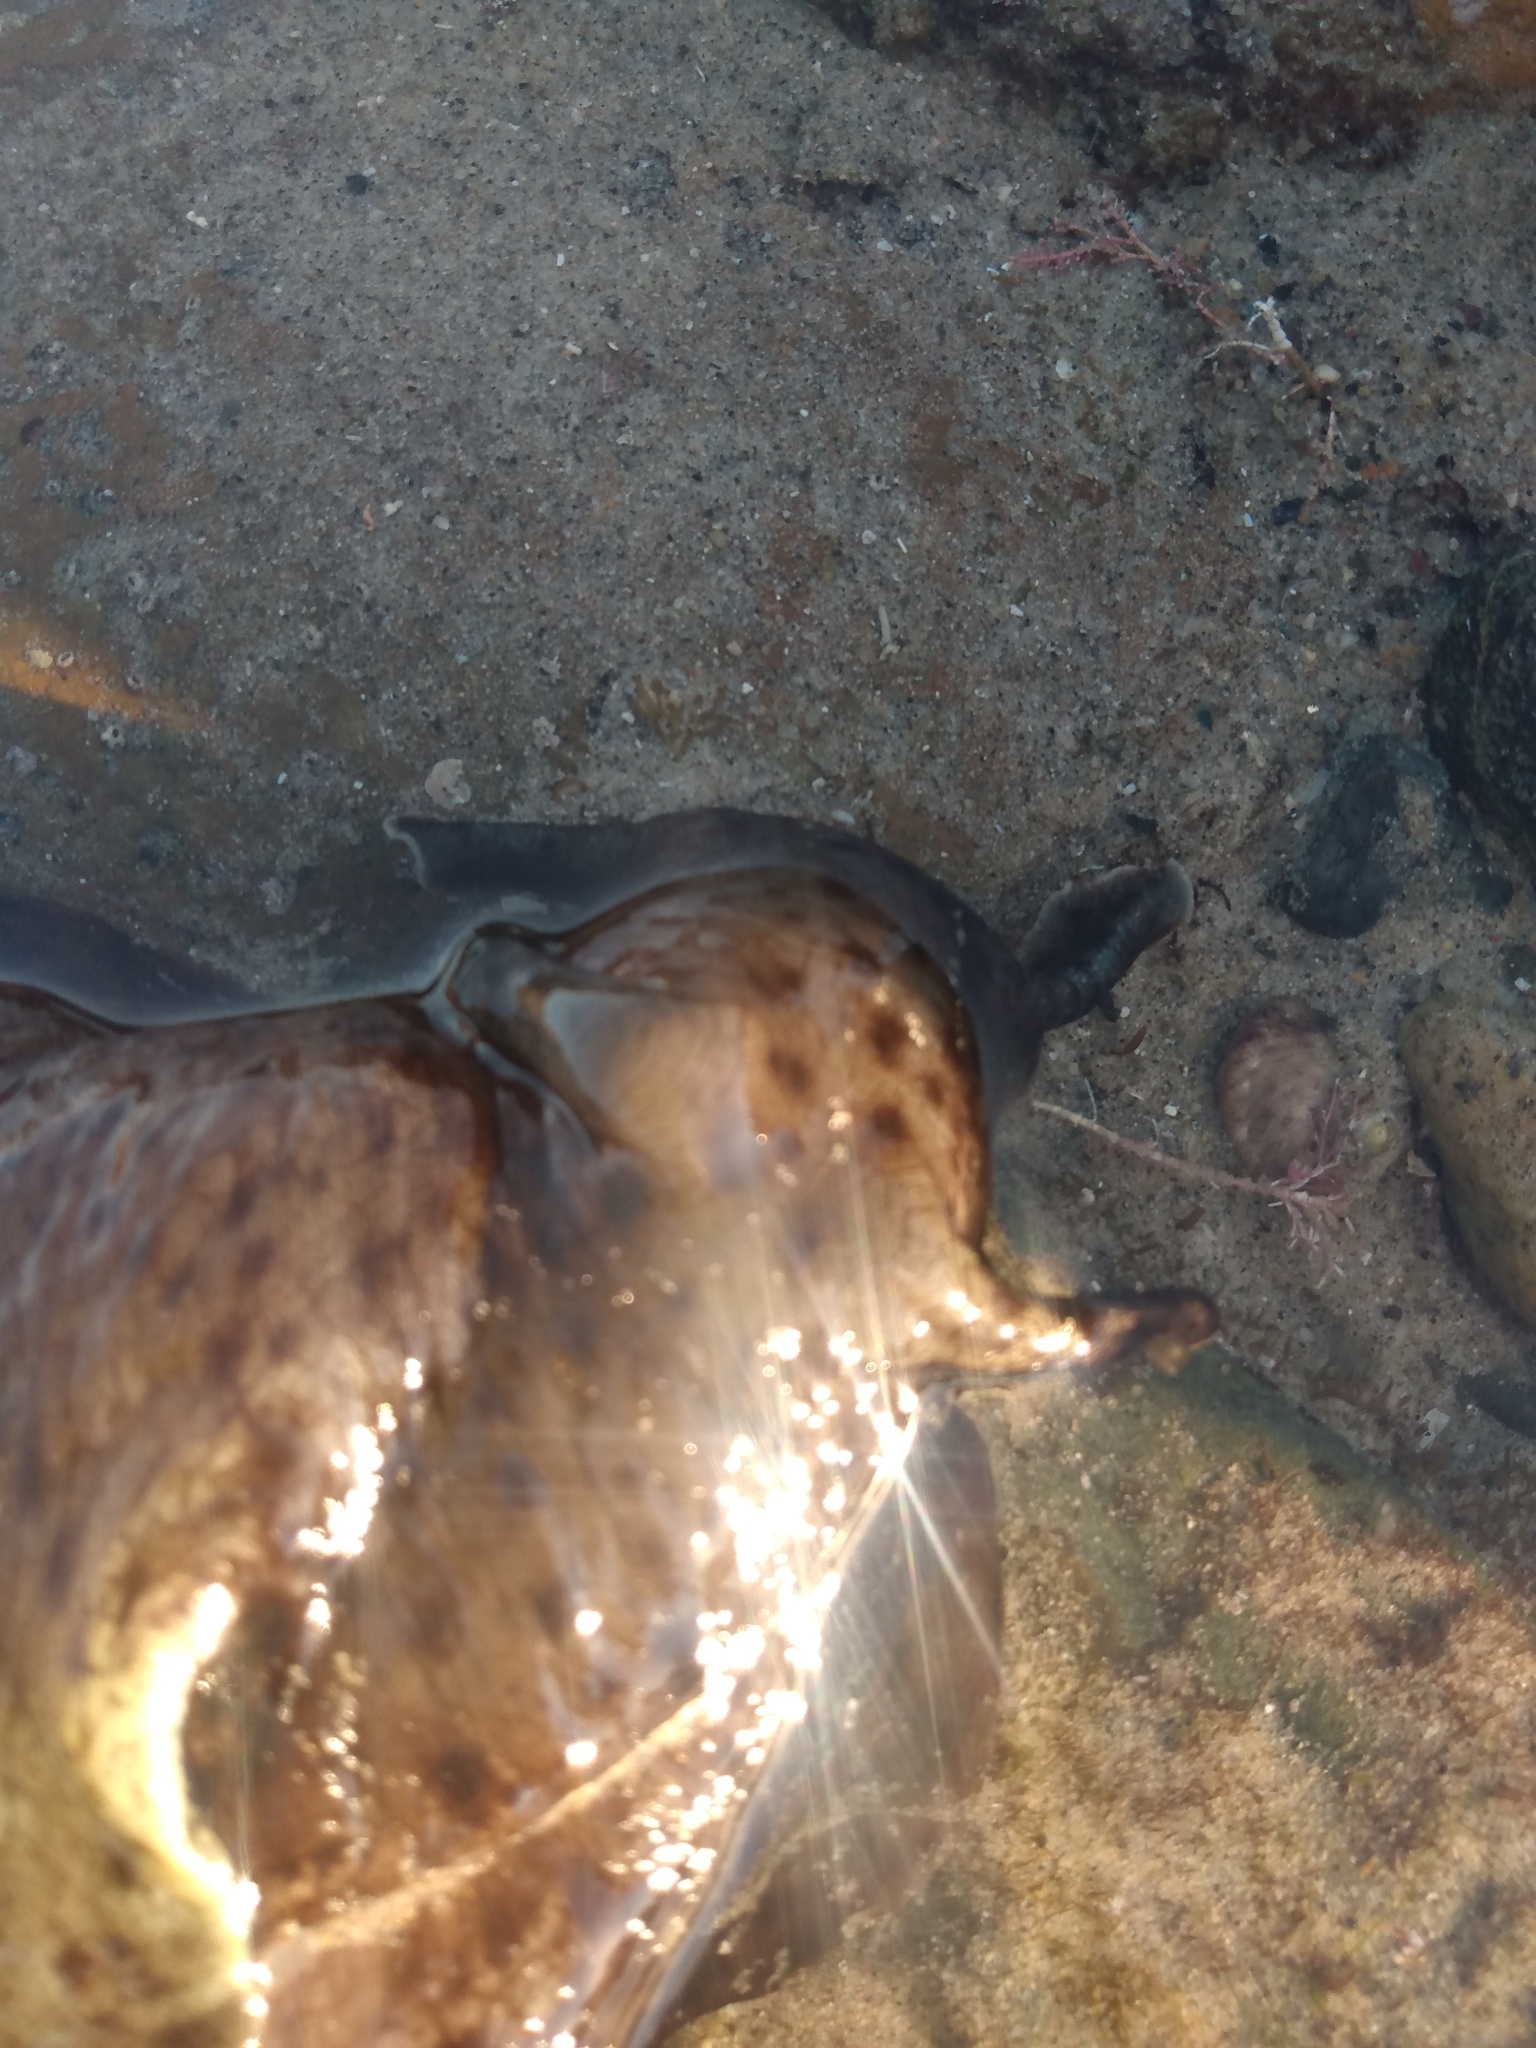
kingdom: Animalia
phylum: Mollusca
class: Gastropoda
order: Aplysiida
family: Aplysiidae
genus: Aplysia
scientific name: Aplysia californica
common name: California seahare
